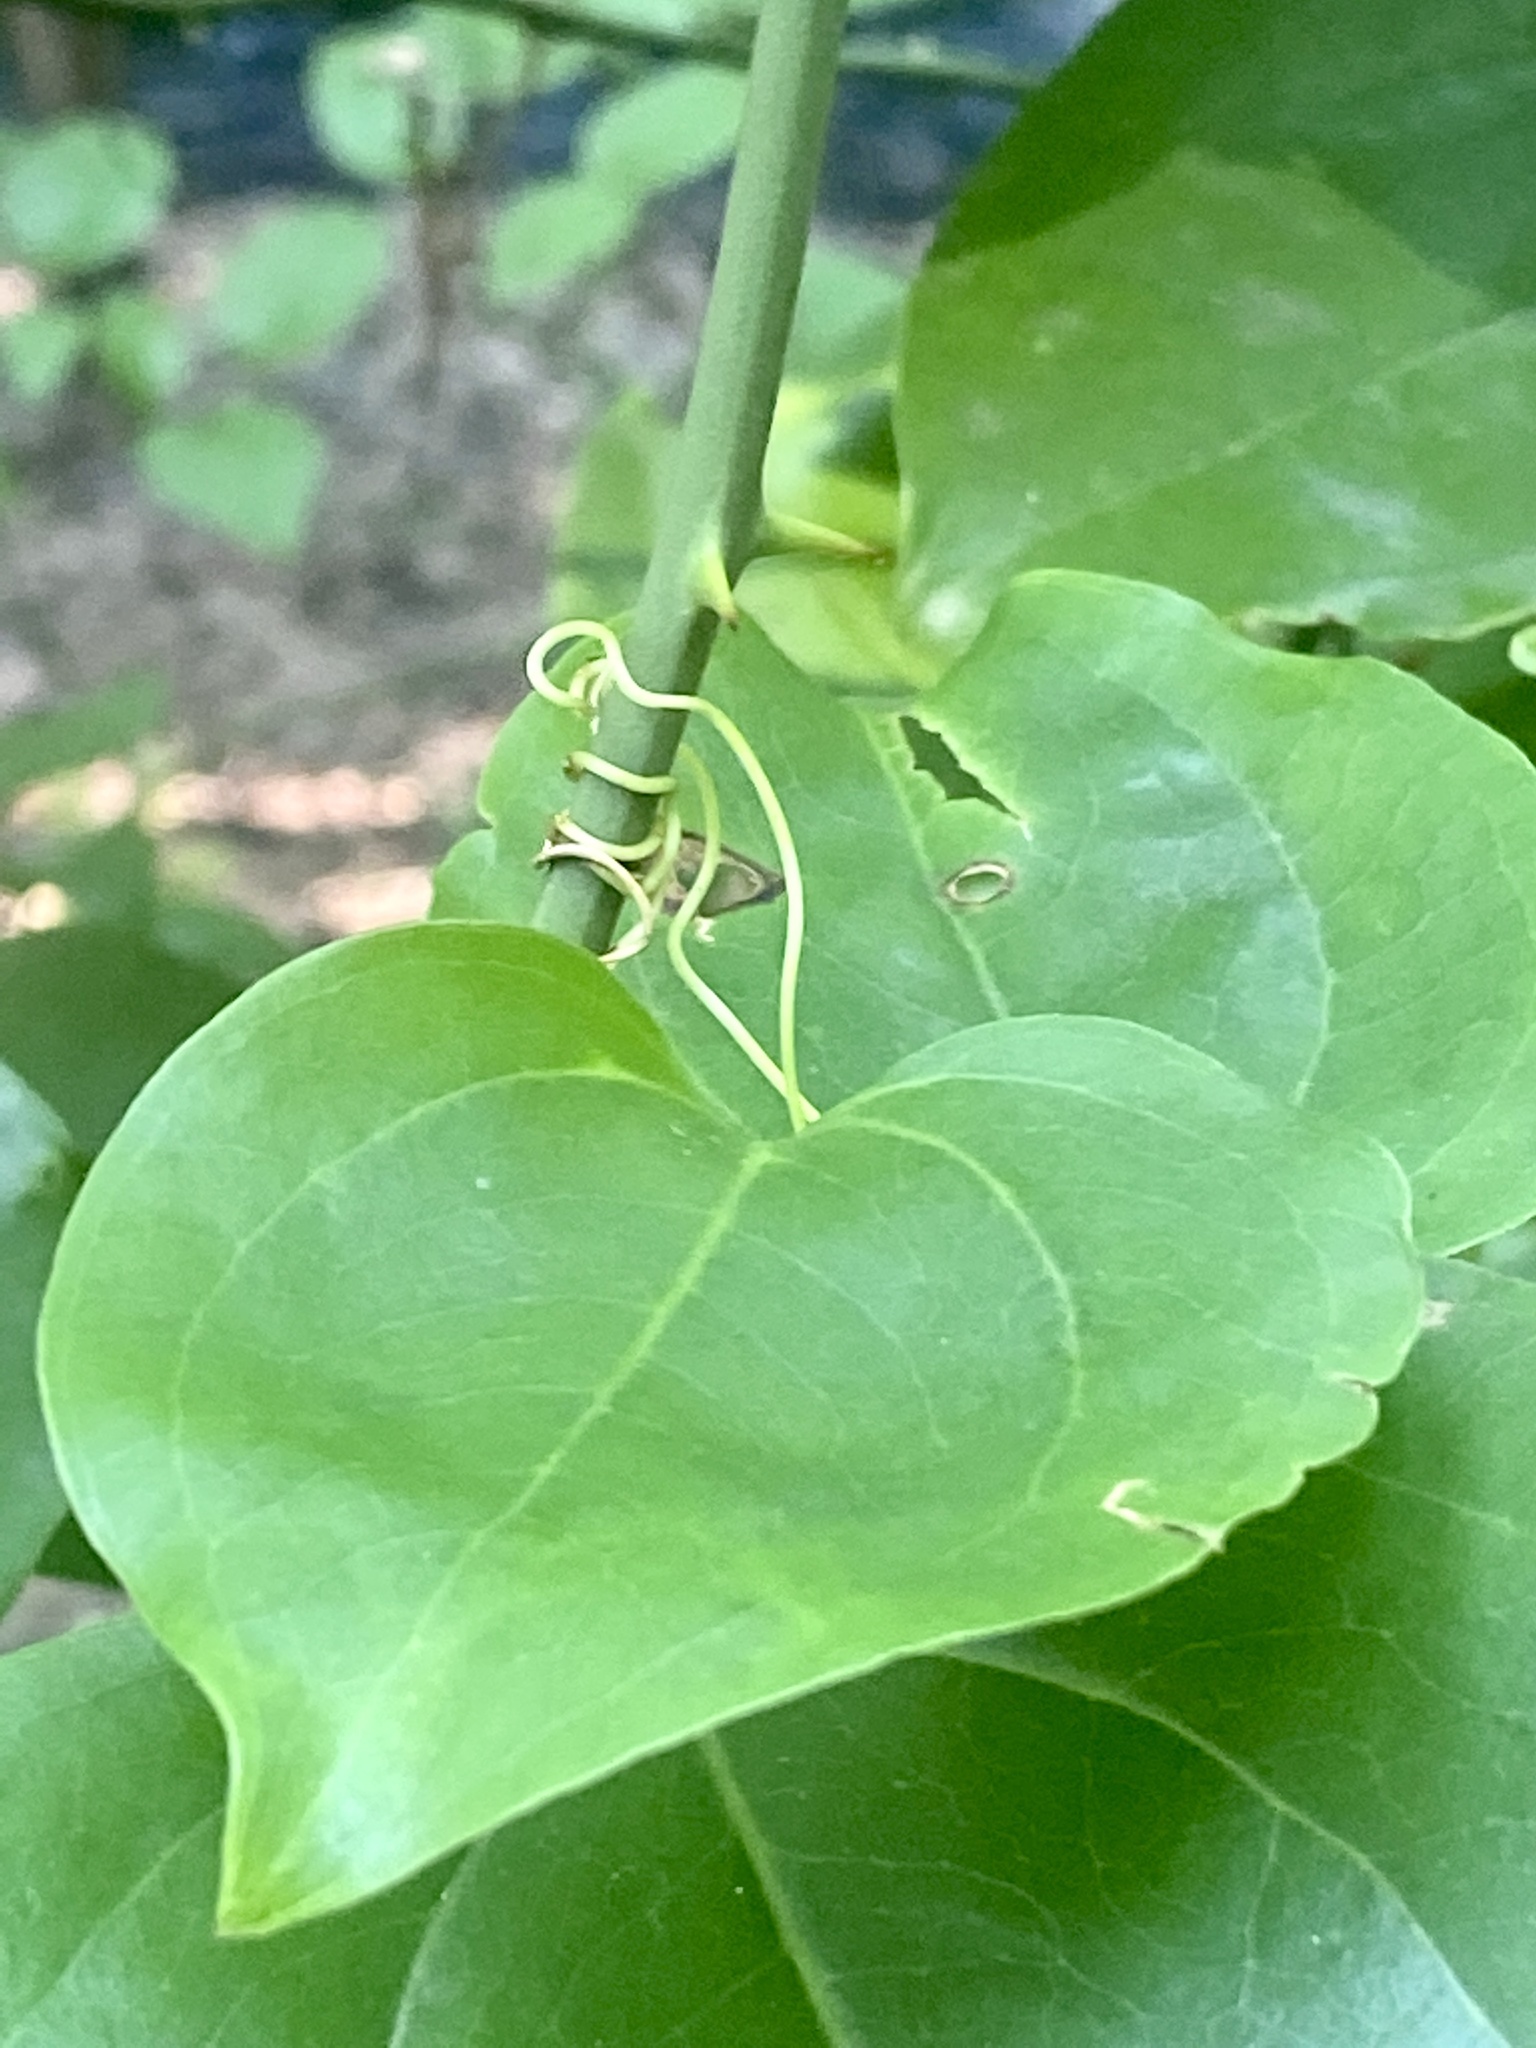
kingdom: Plantae
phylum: Tracheophyta
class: Liliopsida
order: Liliales
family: Smilacaceae
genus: Smilax
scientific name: Smilax rotundifolia
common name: Bullbriar
